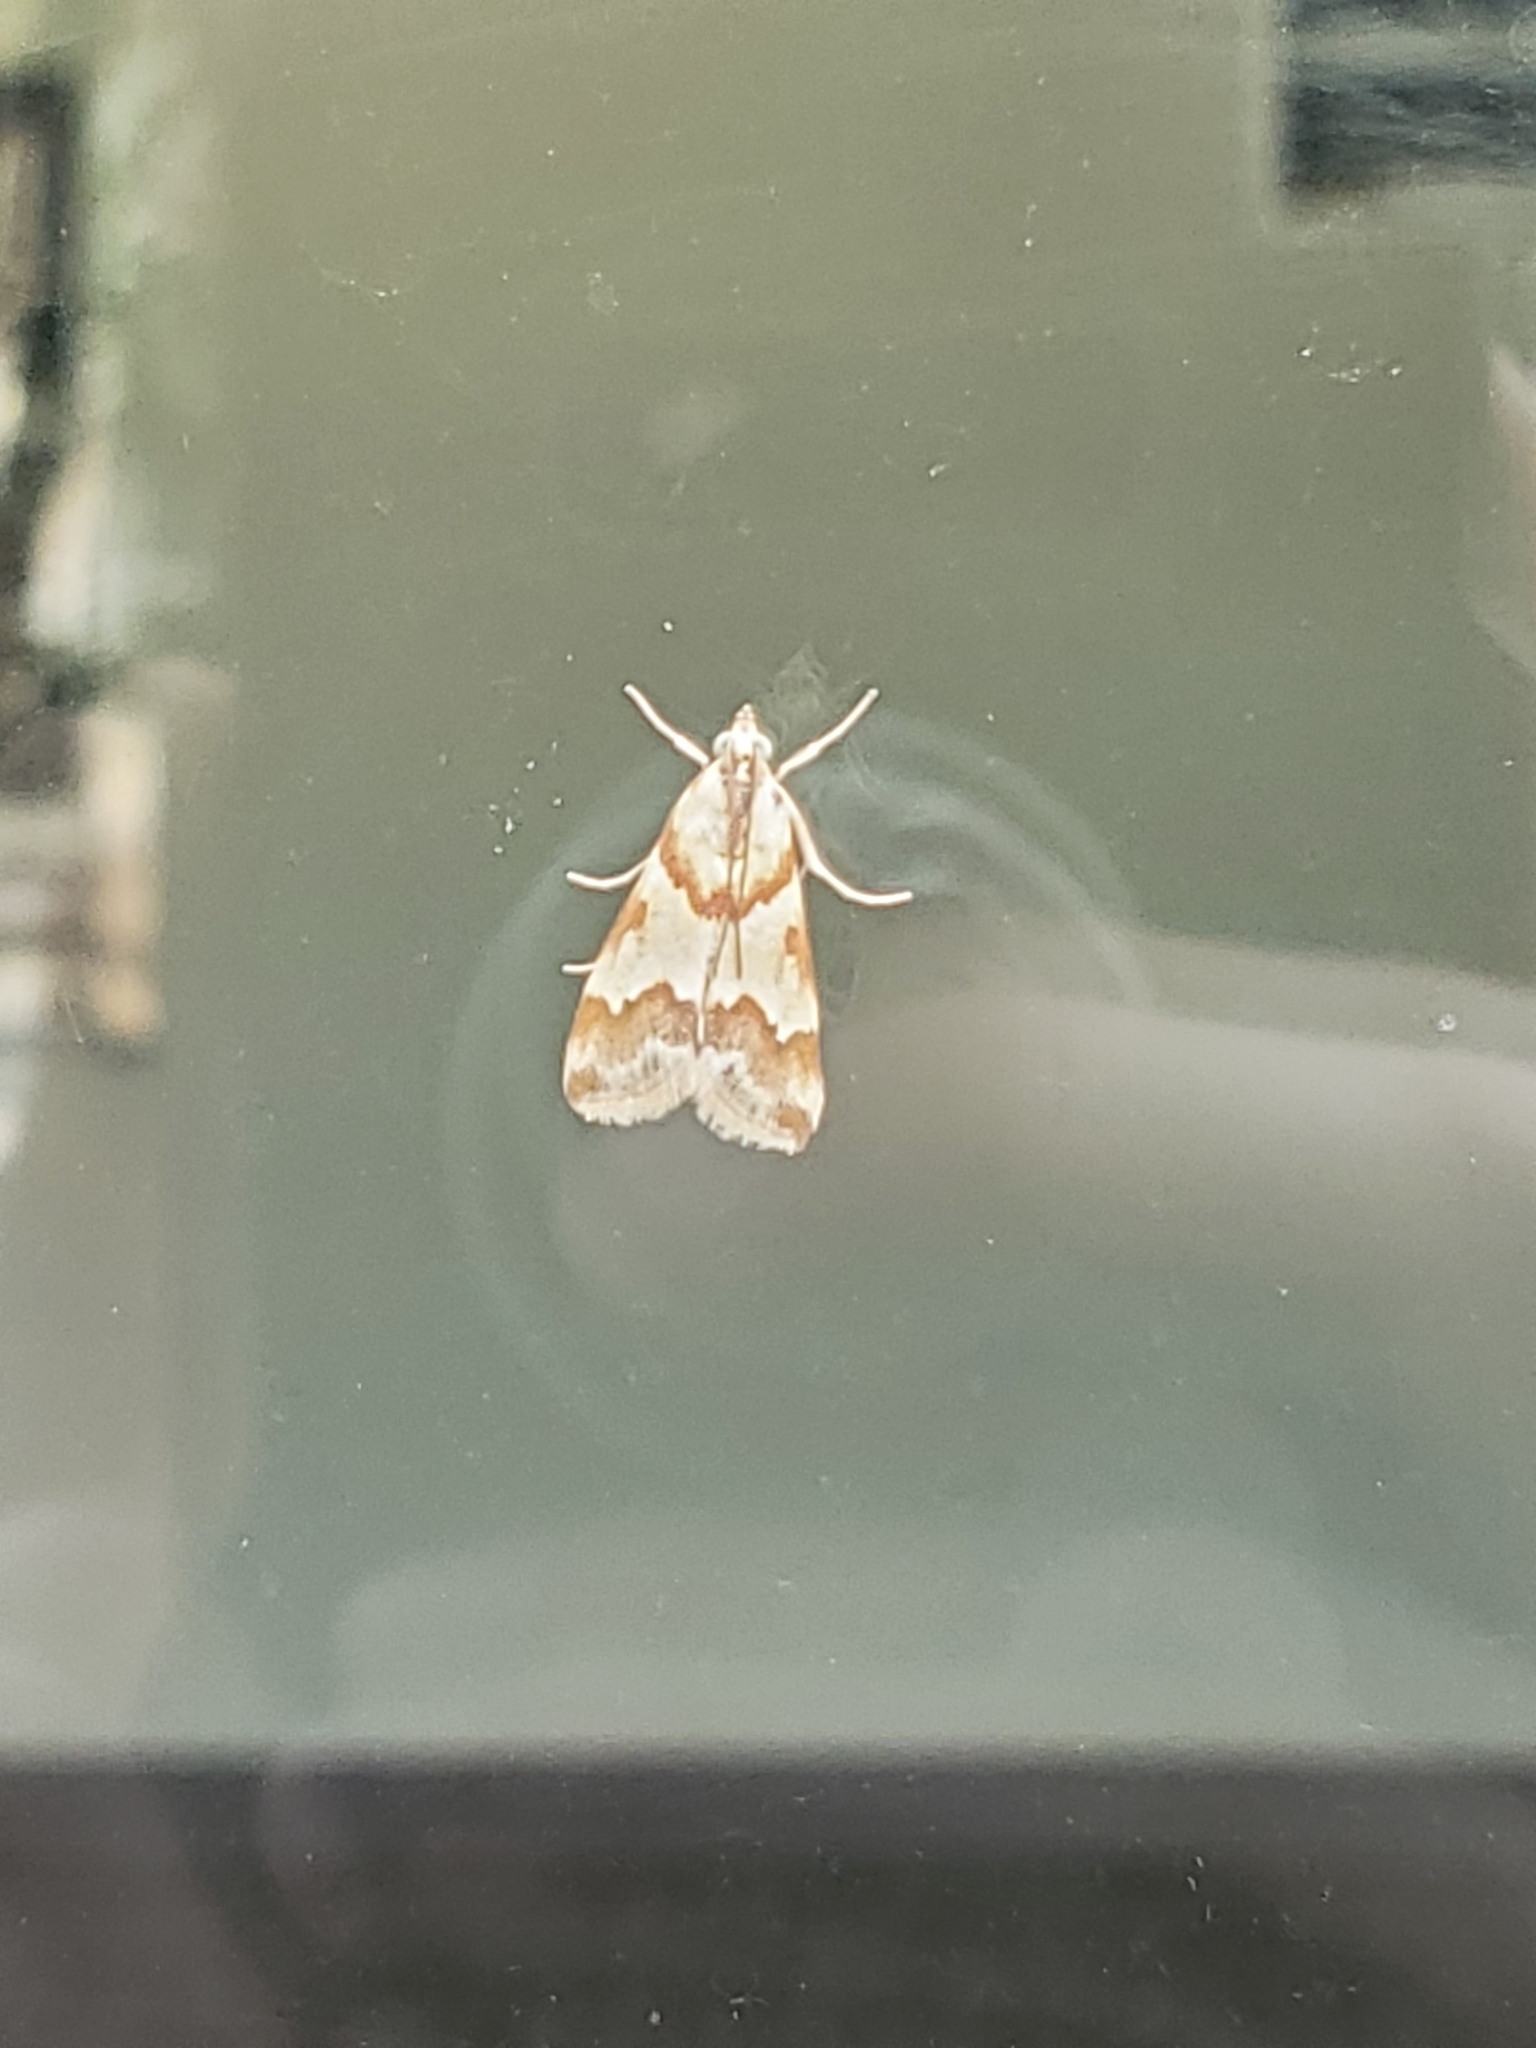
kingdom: Animalia
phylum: Arthropoda
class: Insecta
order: Lepidoptera
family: Crambidae
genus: Noctuelia
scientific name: Noctuelia Mimoschinia rufofascialis
